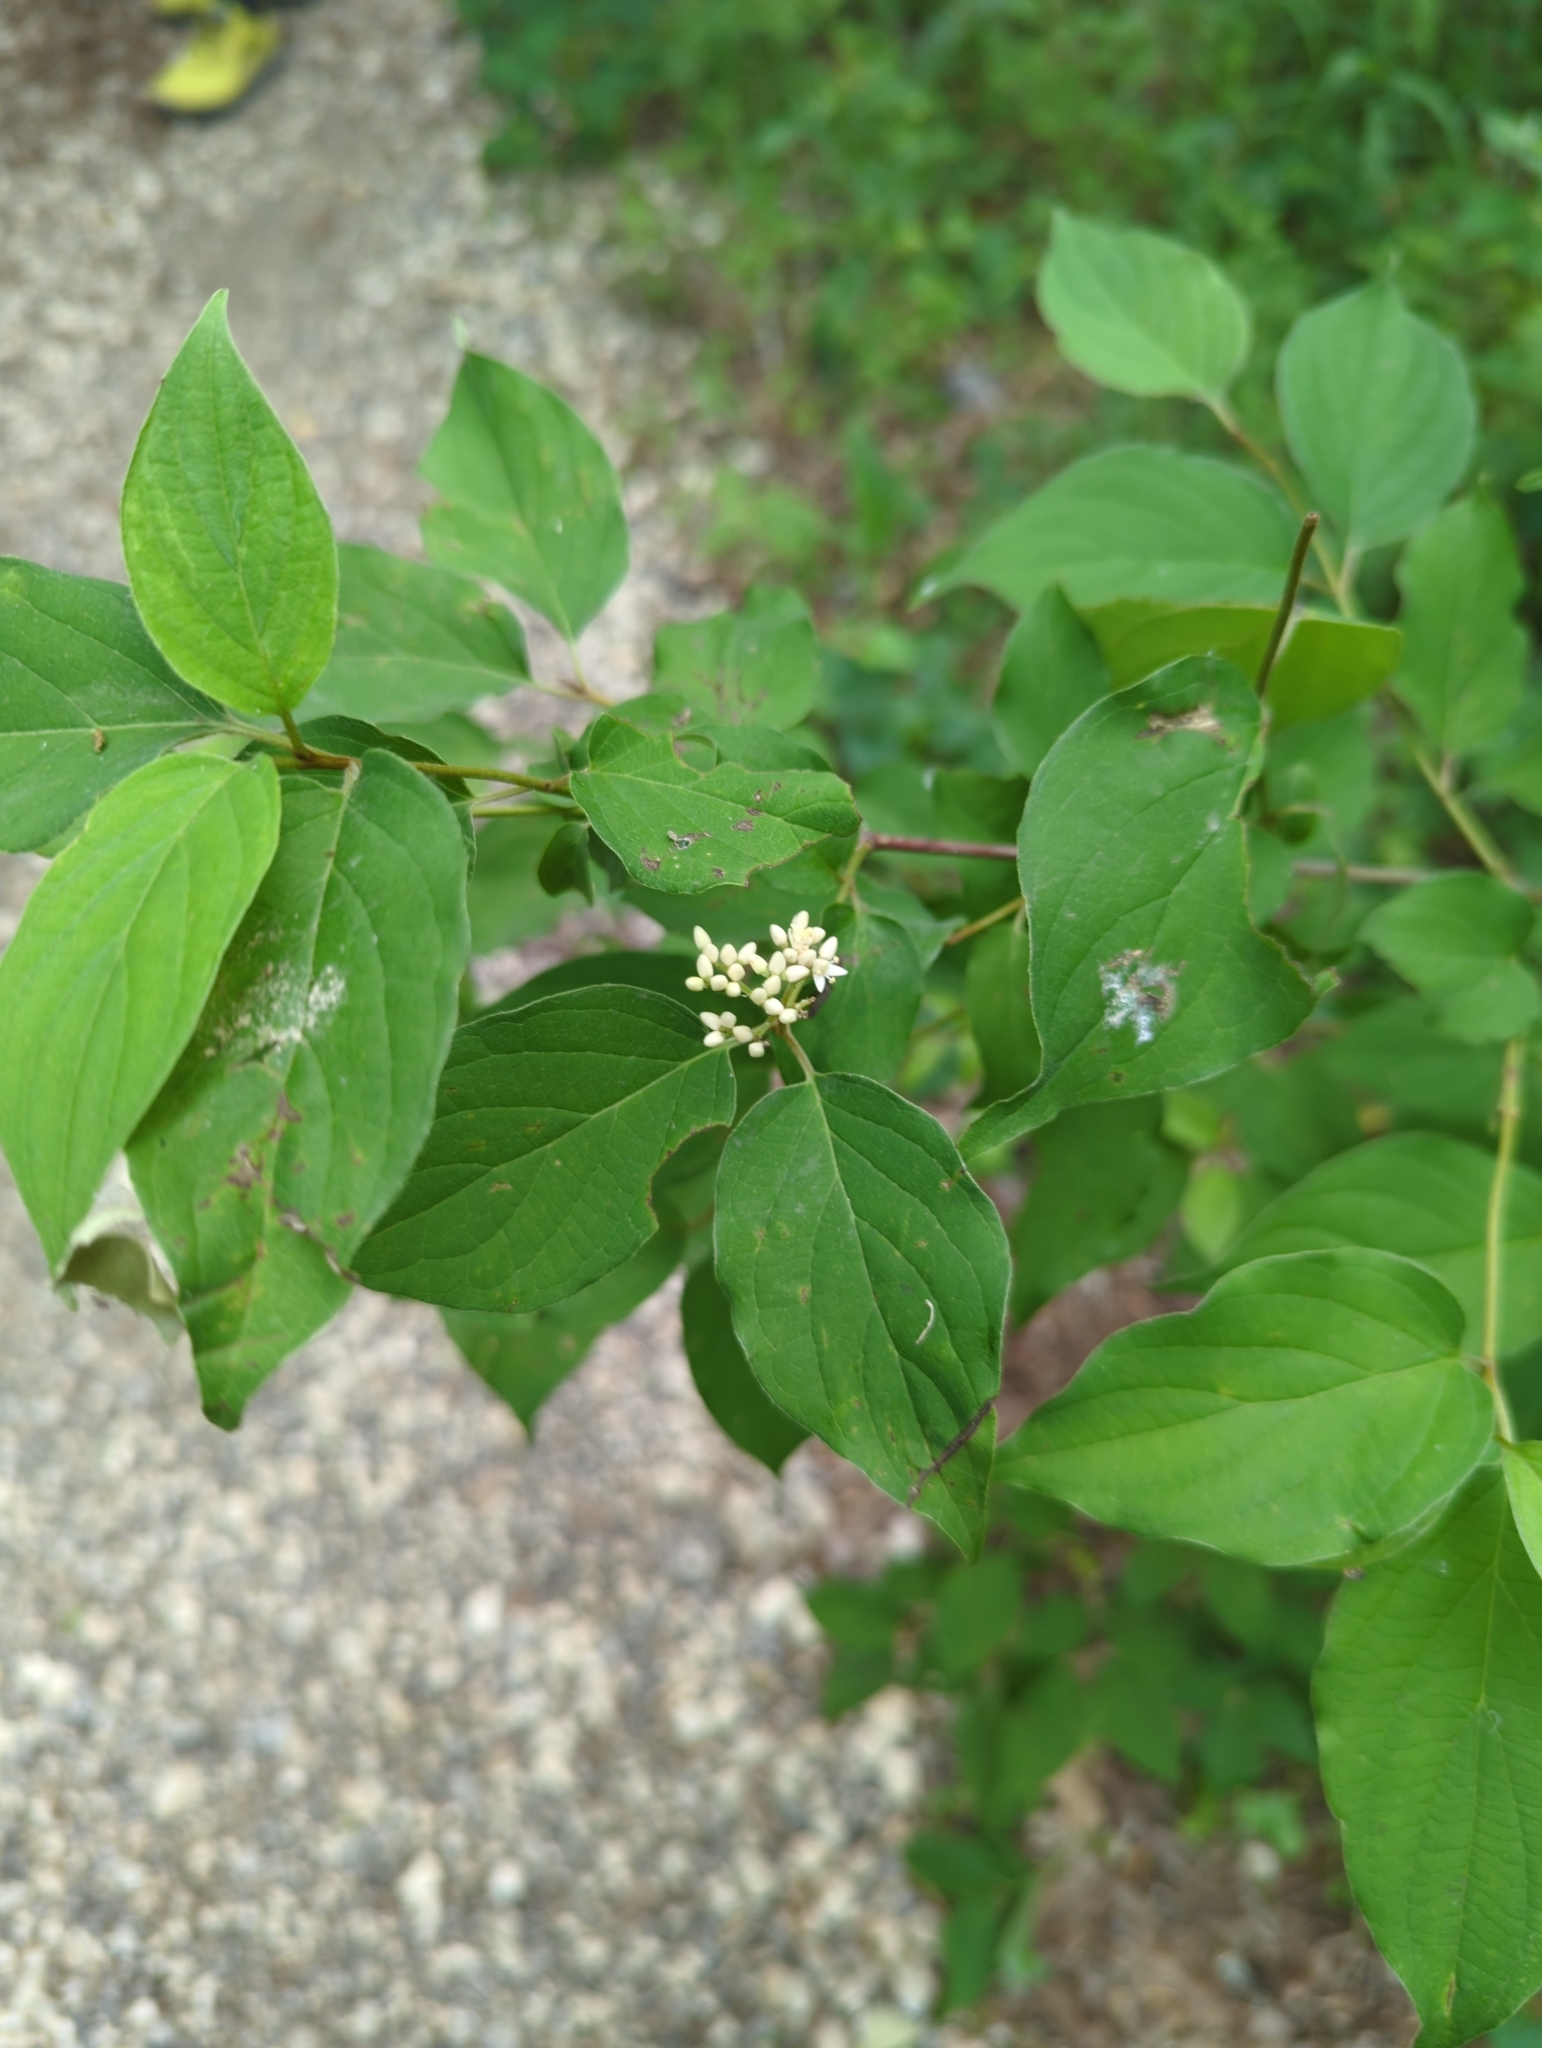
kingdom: Plantae
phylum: Tracheophyta
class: Magnoliopsida
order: Cornales
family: Cornaceae
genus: Cornus
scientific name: Cornus drummondii
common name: Rough-leaf dogwood
